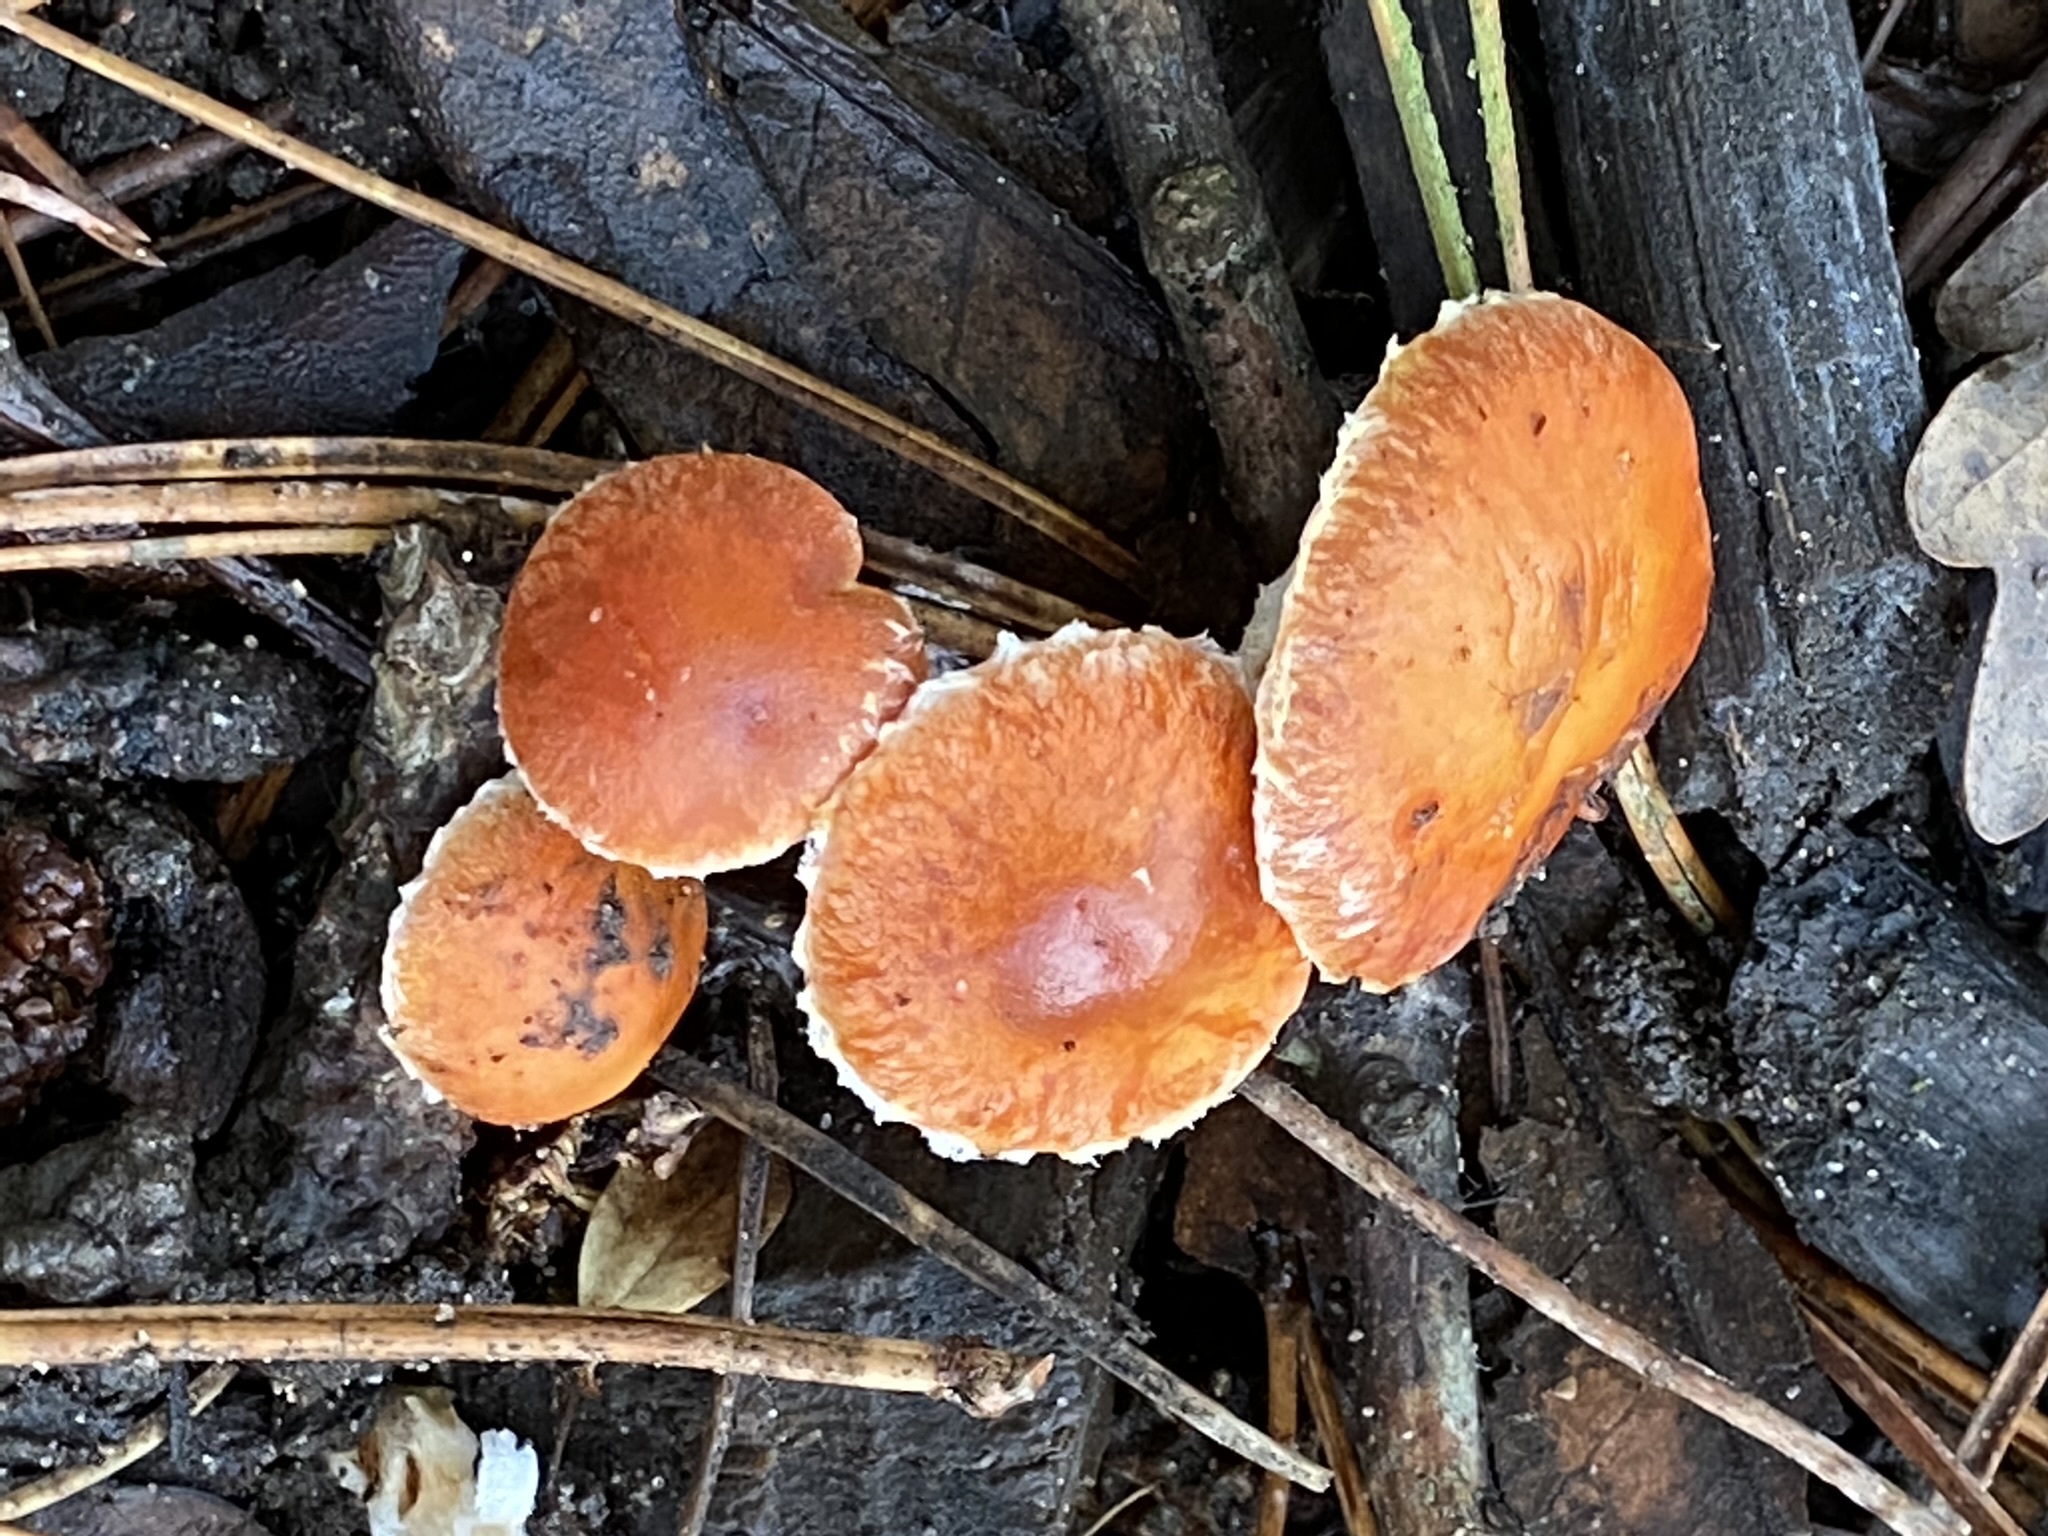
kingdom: Fungi
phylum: Basidiomycota
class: Agaricomycetes
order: Agaricales
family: Strophariaceae
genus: Leratiomyces
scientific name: Leratiomyces ceres
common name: Redlead roundhead
